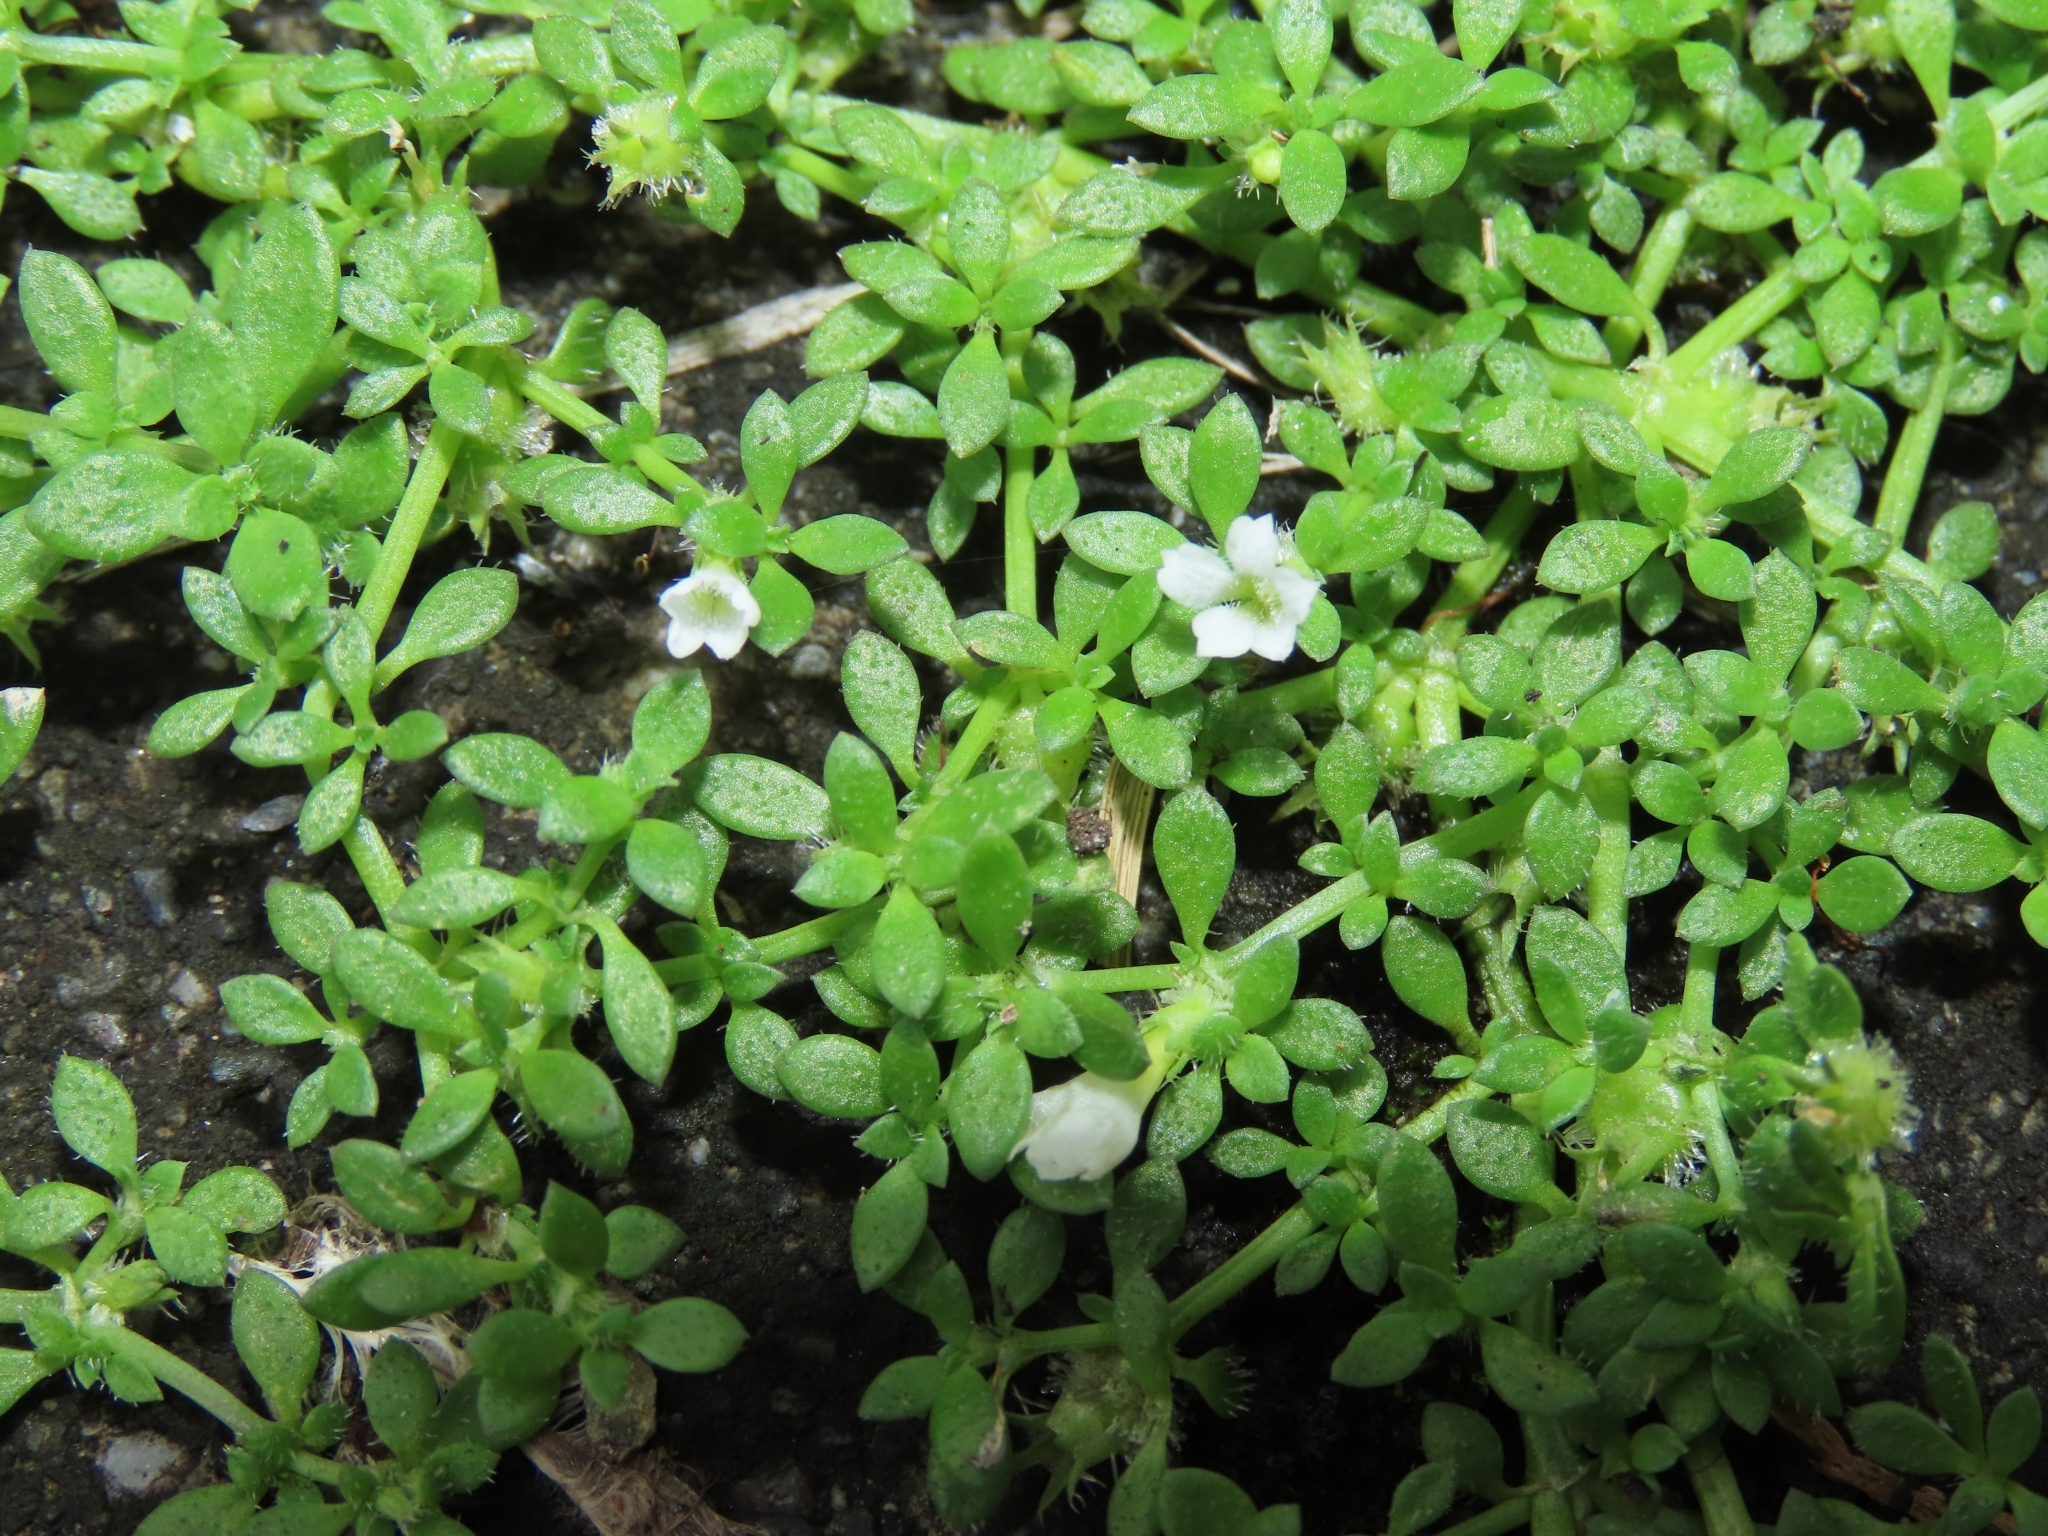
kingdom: Plantae
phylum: Tracheophyta
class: Magnoliopsida
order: Gentianales
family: Rubiaceae
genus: Dentella
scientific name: Dentella repens
